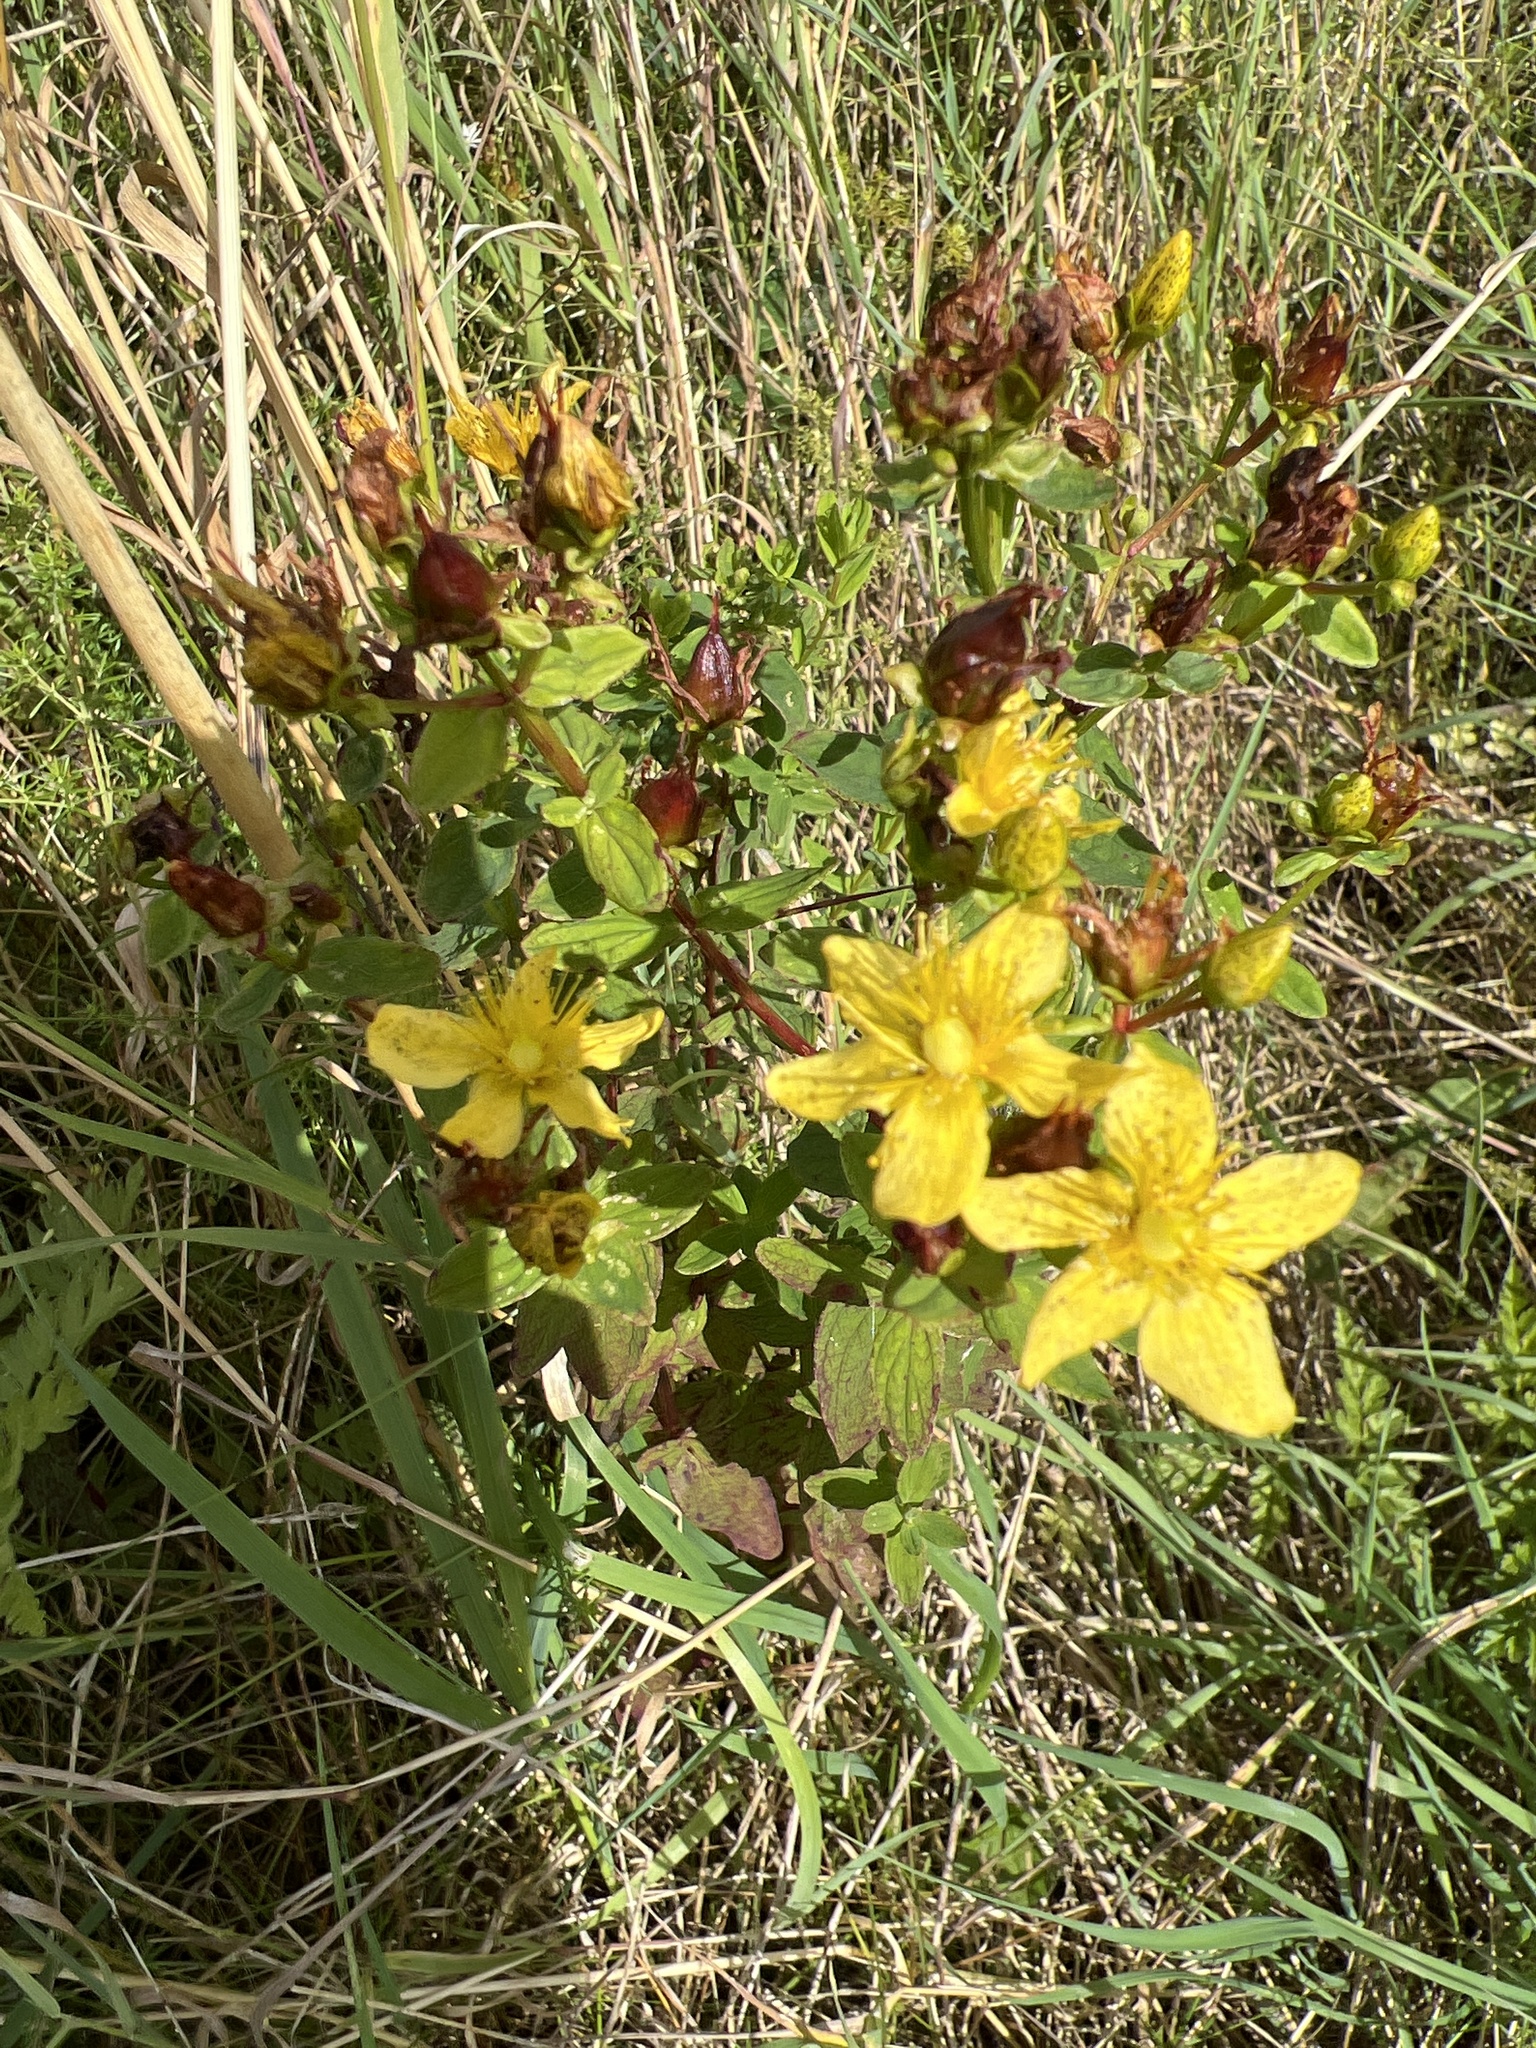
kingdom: Plantae
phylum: Tracheophyta
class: Magnoliopsida
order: Malpighiales
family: Hypericaceae
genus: Hypericum
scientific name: Hypericum maculatum
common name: Imperforate st. john's-wort
